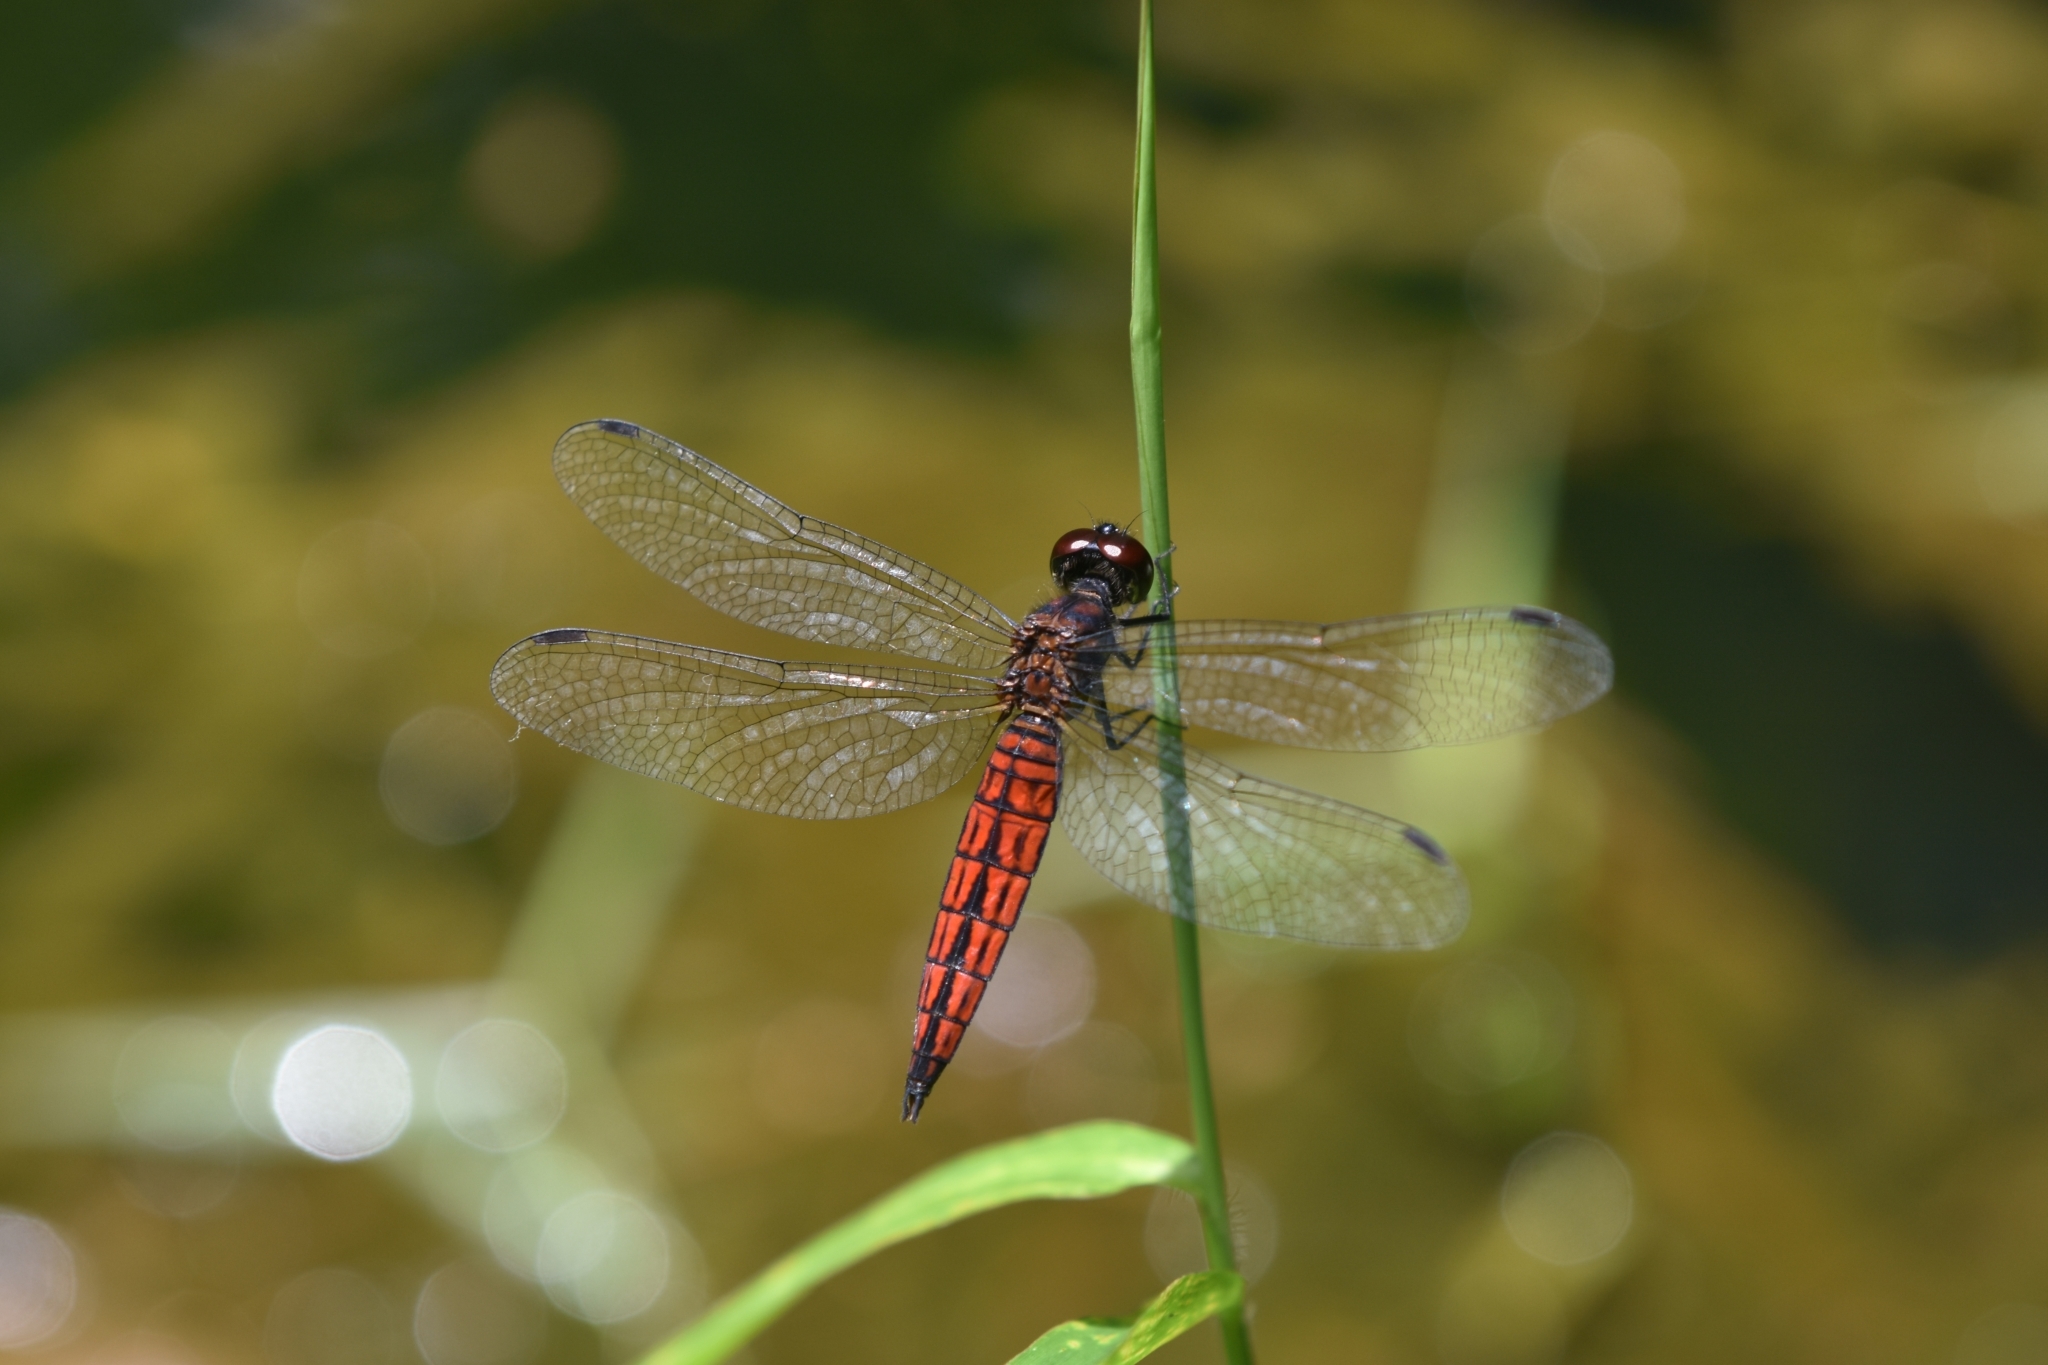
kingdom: Animalia
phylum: Arthropoda
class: Insecta
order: Odonata
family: Libellulidae
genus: Lyriothemis
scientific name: Lyriothemis acigastra
